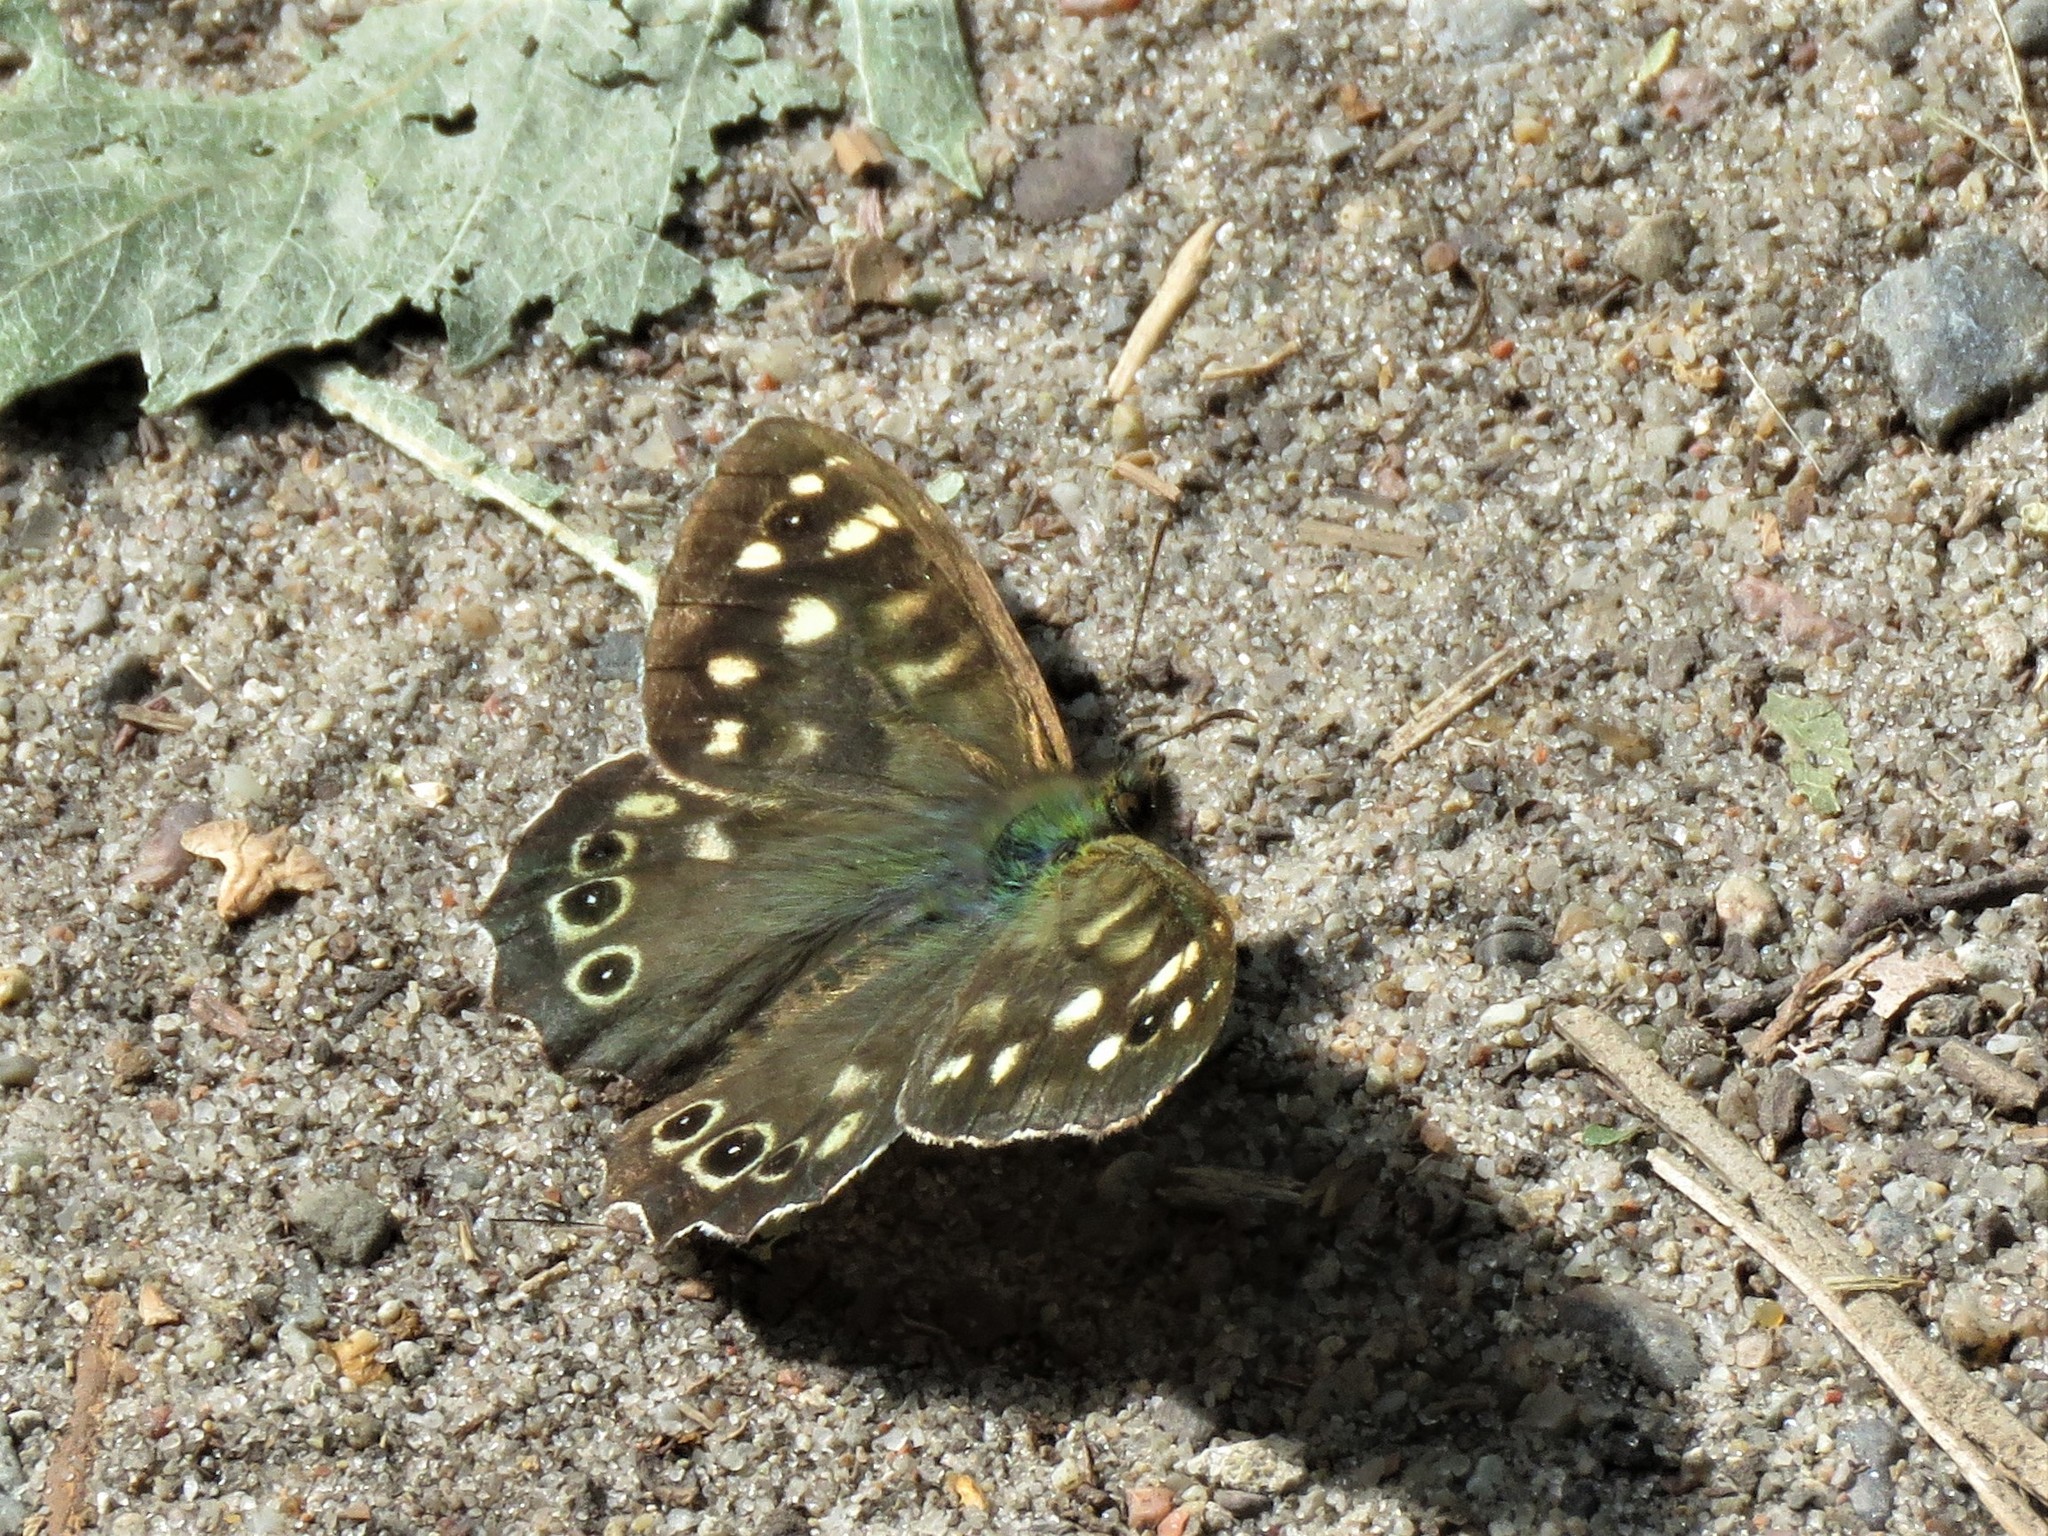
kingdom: Animalia
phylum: Arthropoda
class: Insecta
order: Lepidoptera
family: Nymphalidae
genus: Pararge
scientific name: Pararge aegeria
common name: Speckled wood
